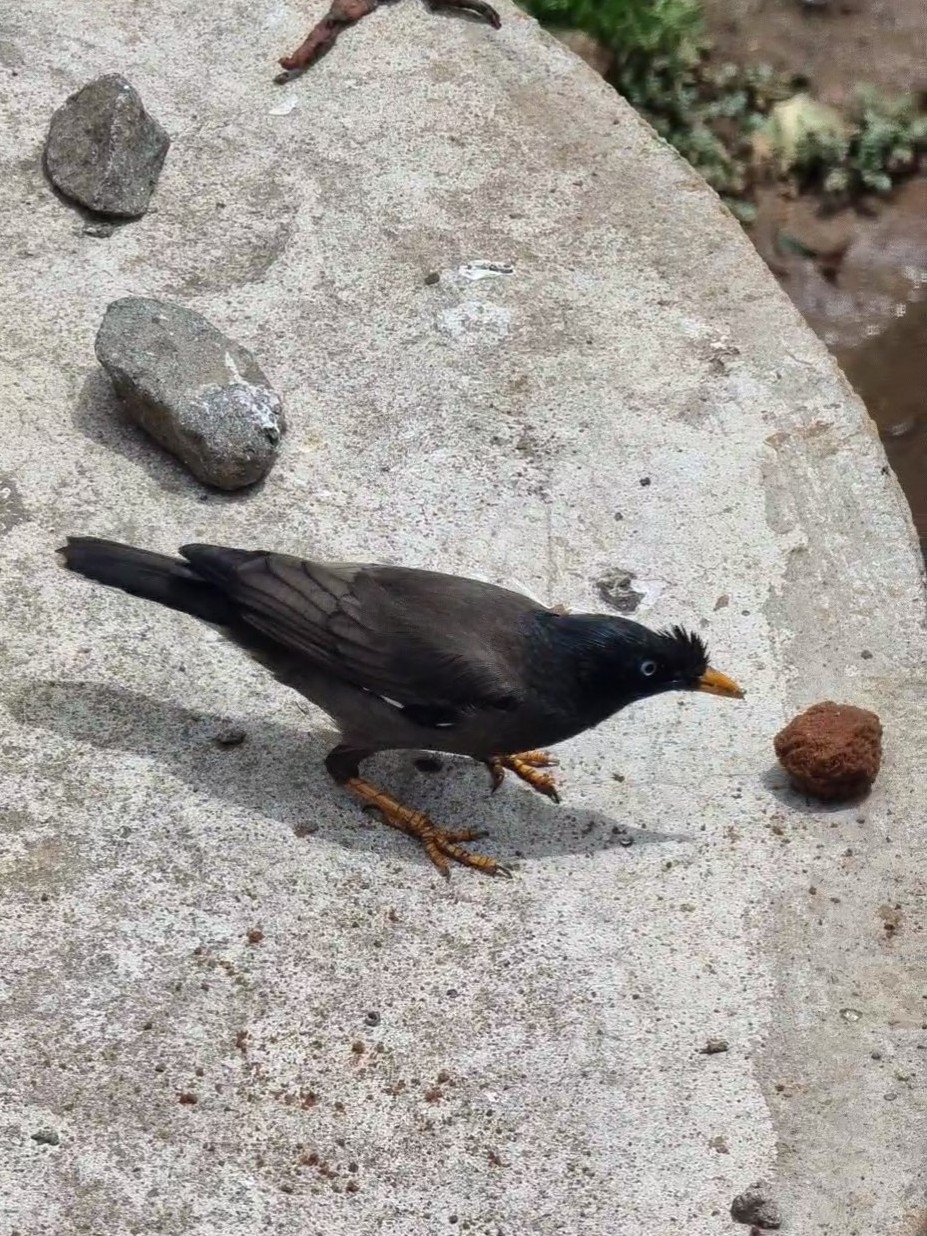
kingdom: Animalia
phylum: Chordata
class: Aves
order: Passeriformes
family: Sturnidae
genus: Acridotheres
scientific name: Acridotheres fuscus
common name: Jungle myna
